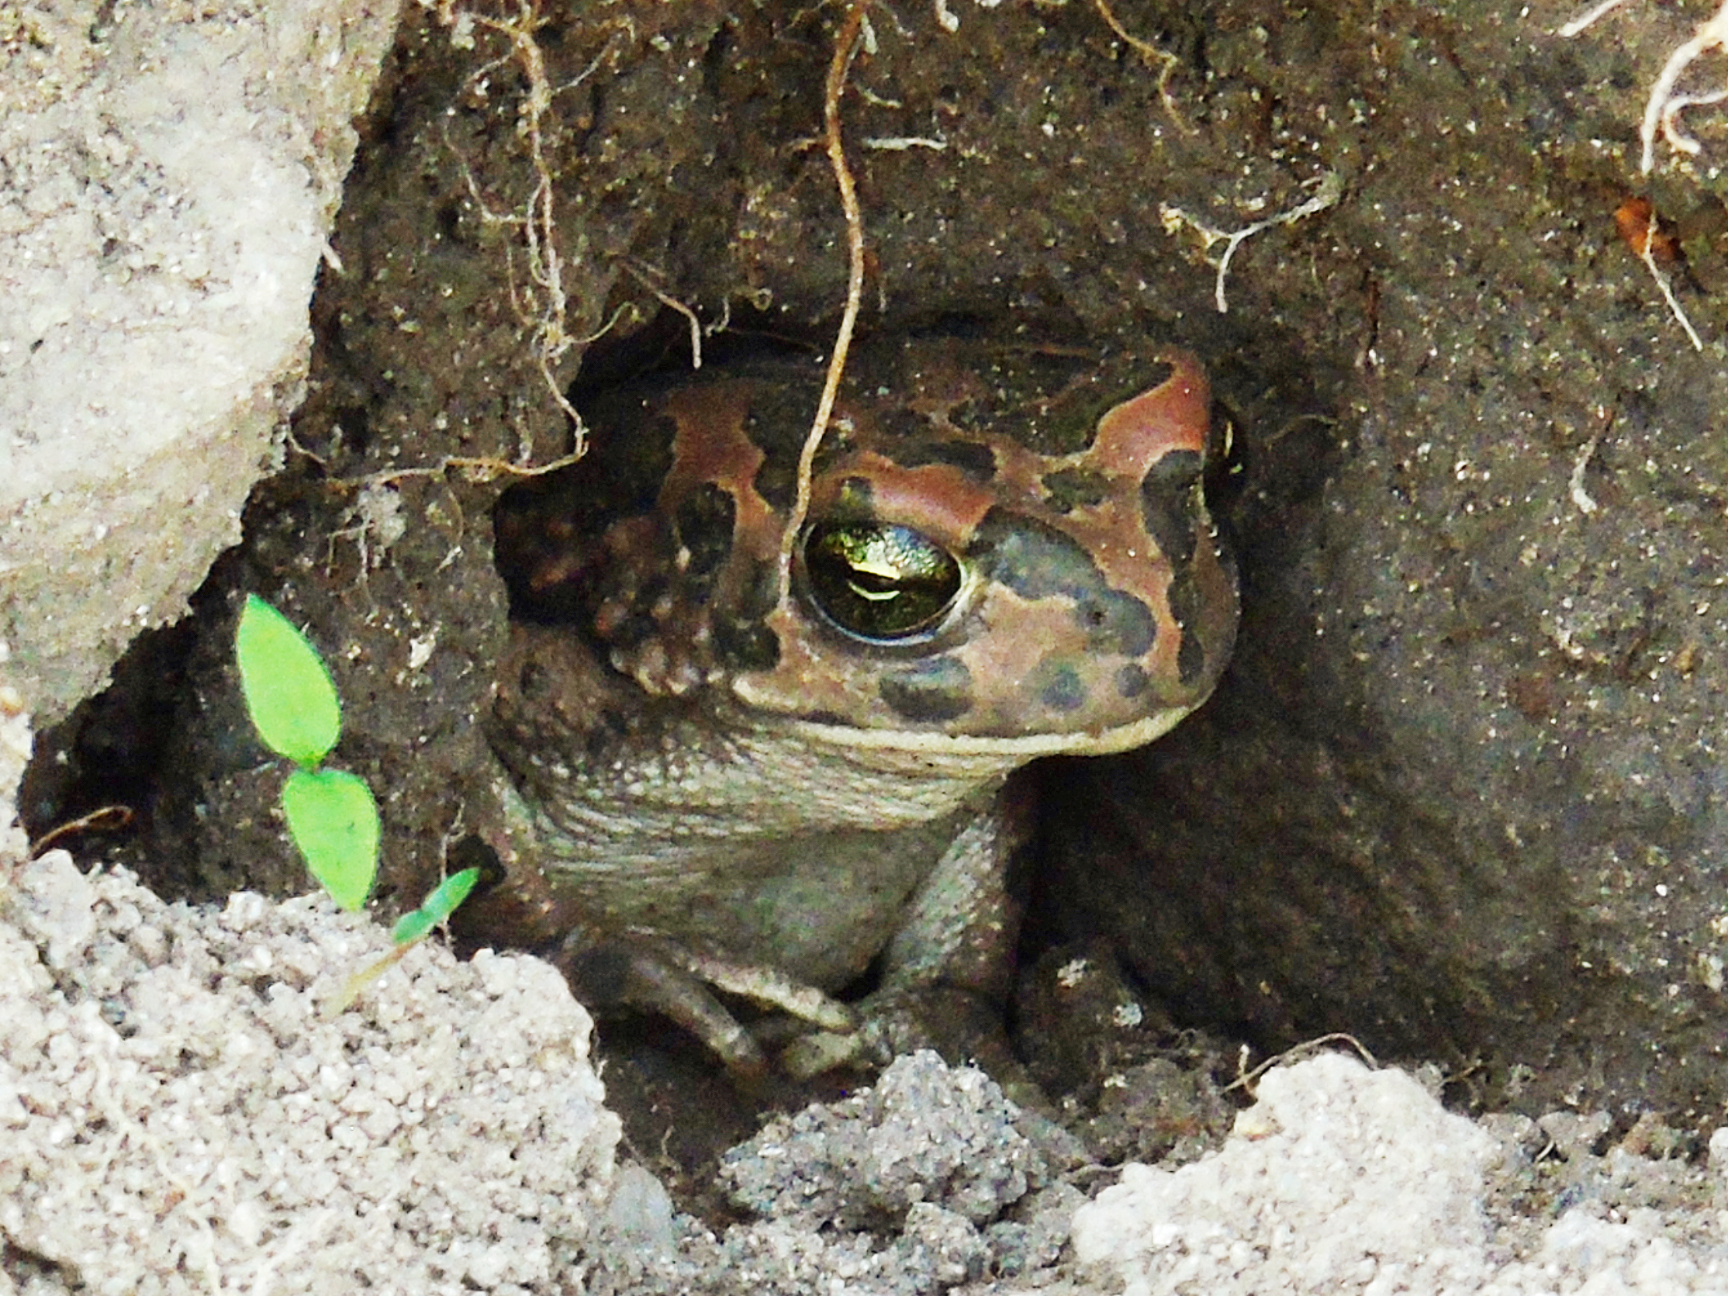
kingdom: Animalia
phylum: Chordata
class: Amphibia
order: Anura
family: Bufonidae
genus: Bufotes
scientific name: Bufotes viridis
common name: European green toad
